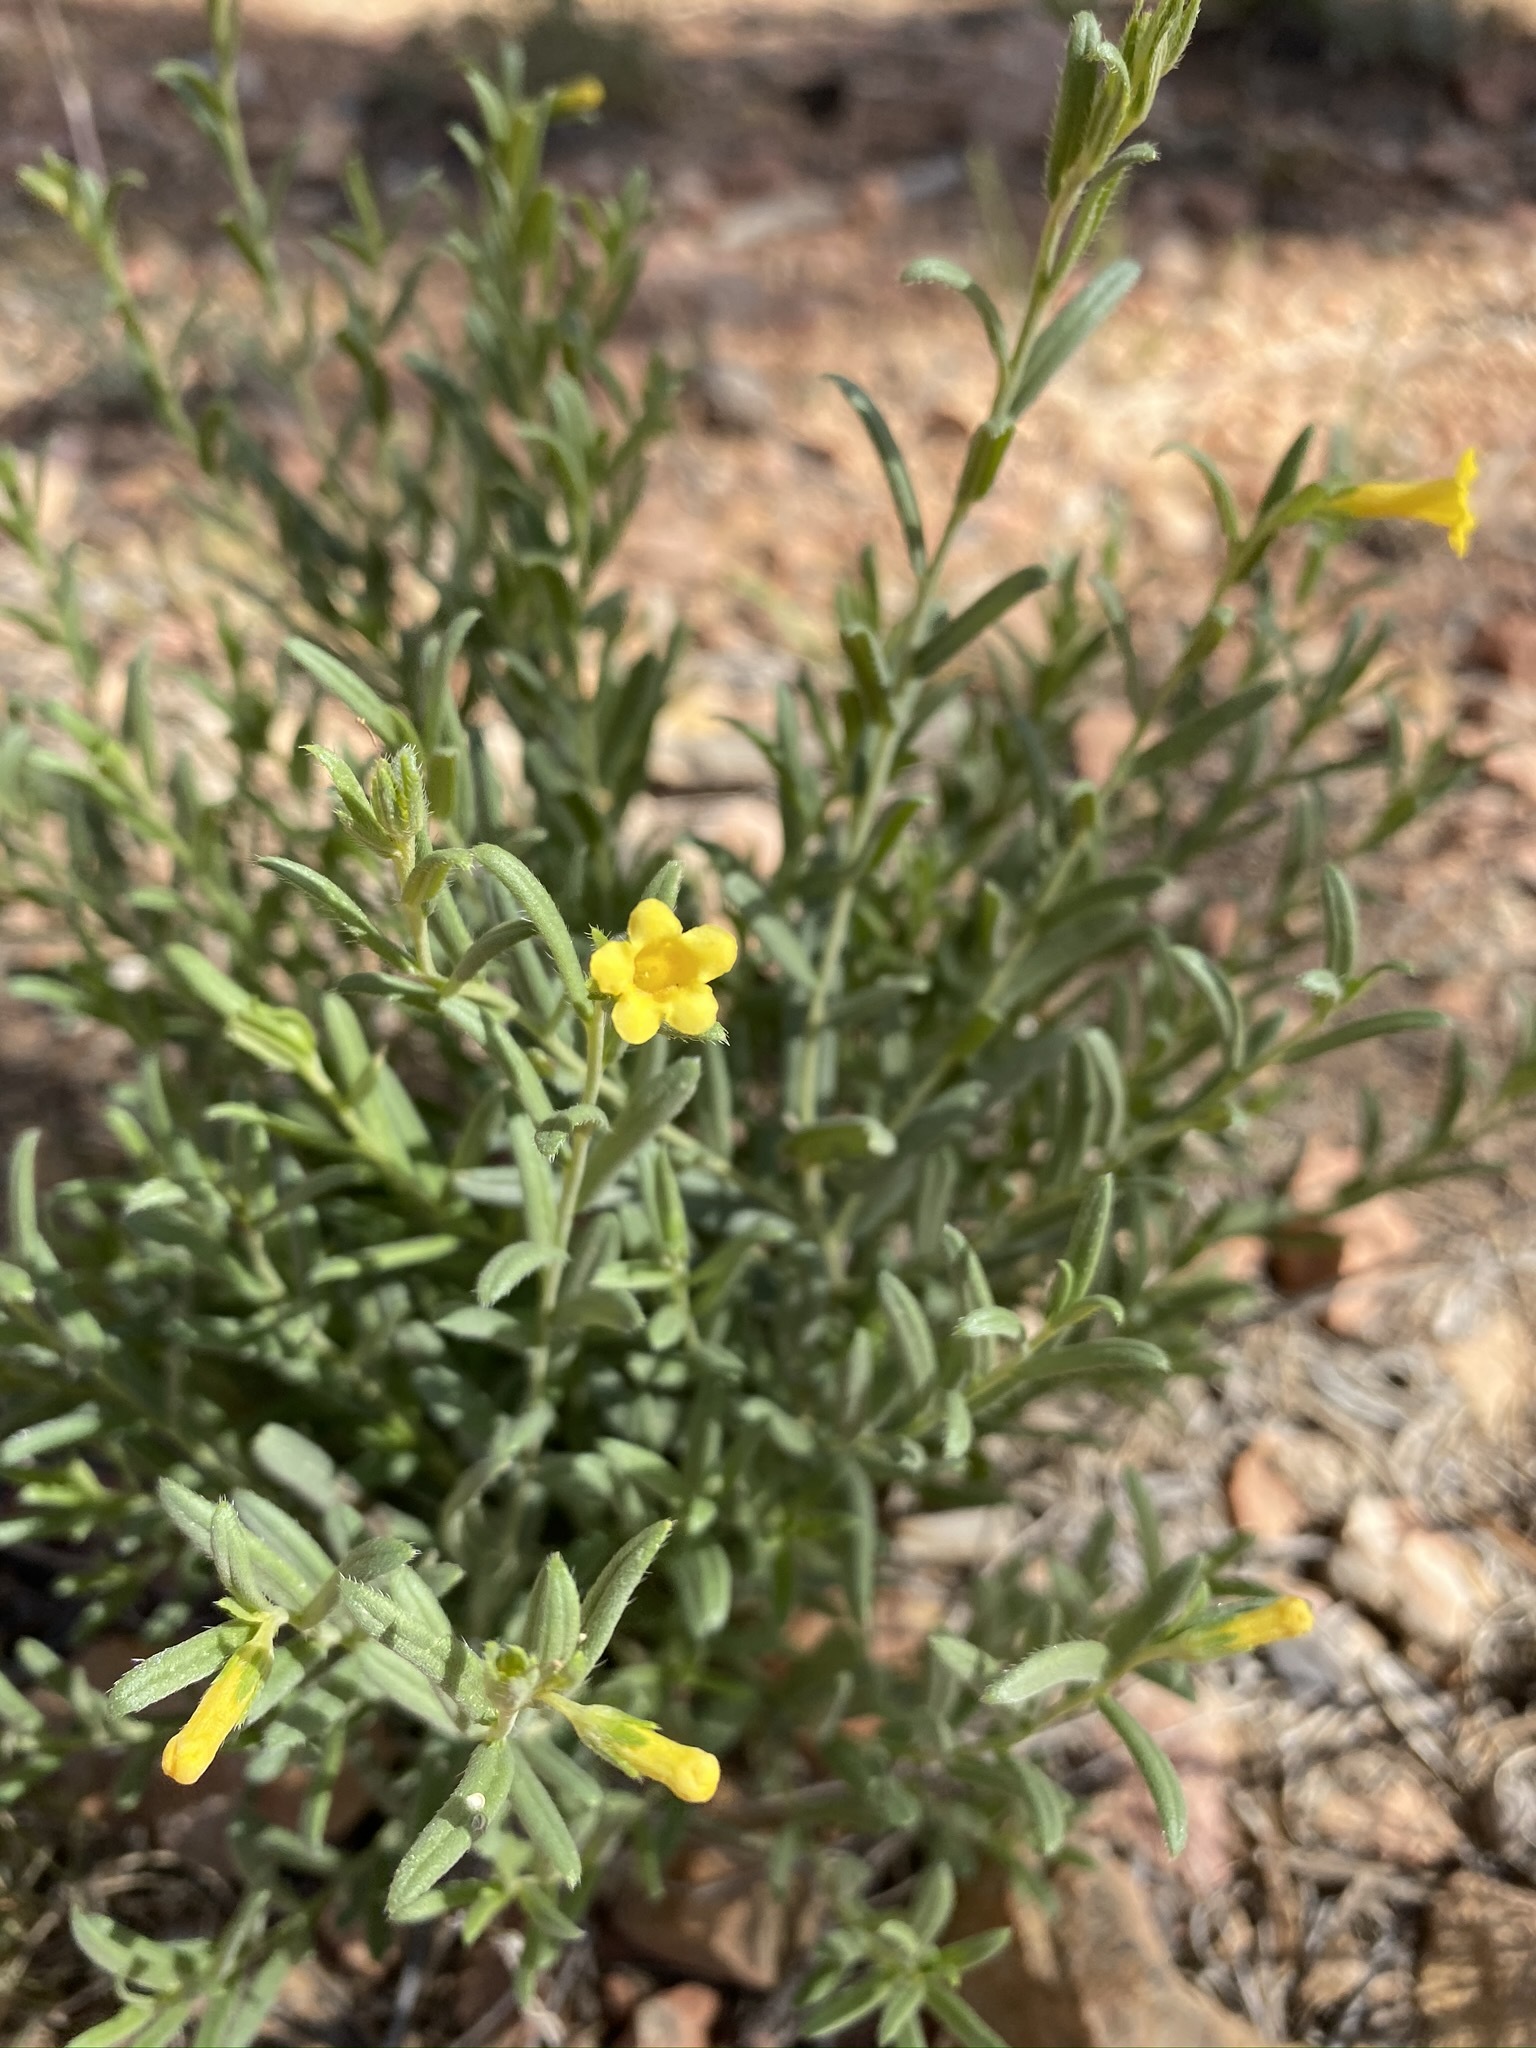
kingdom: Plantae
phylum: Tracheophyta
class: Magnoliopsida
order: Boraginales
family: Boraginaceae
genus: Lithospermum
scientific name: Lithospermum multiflorum
